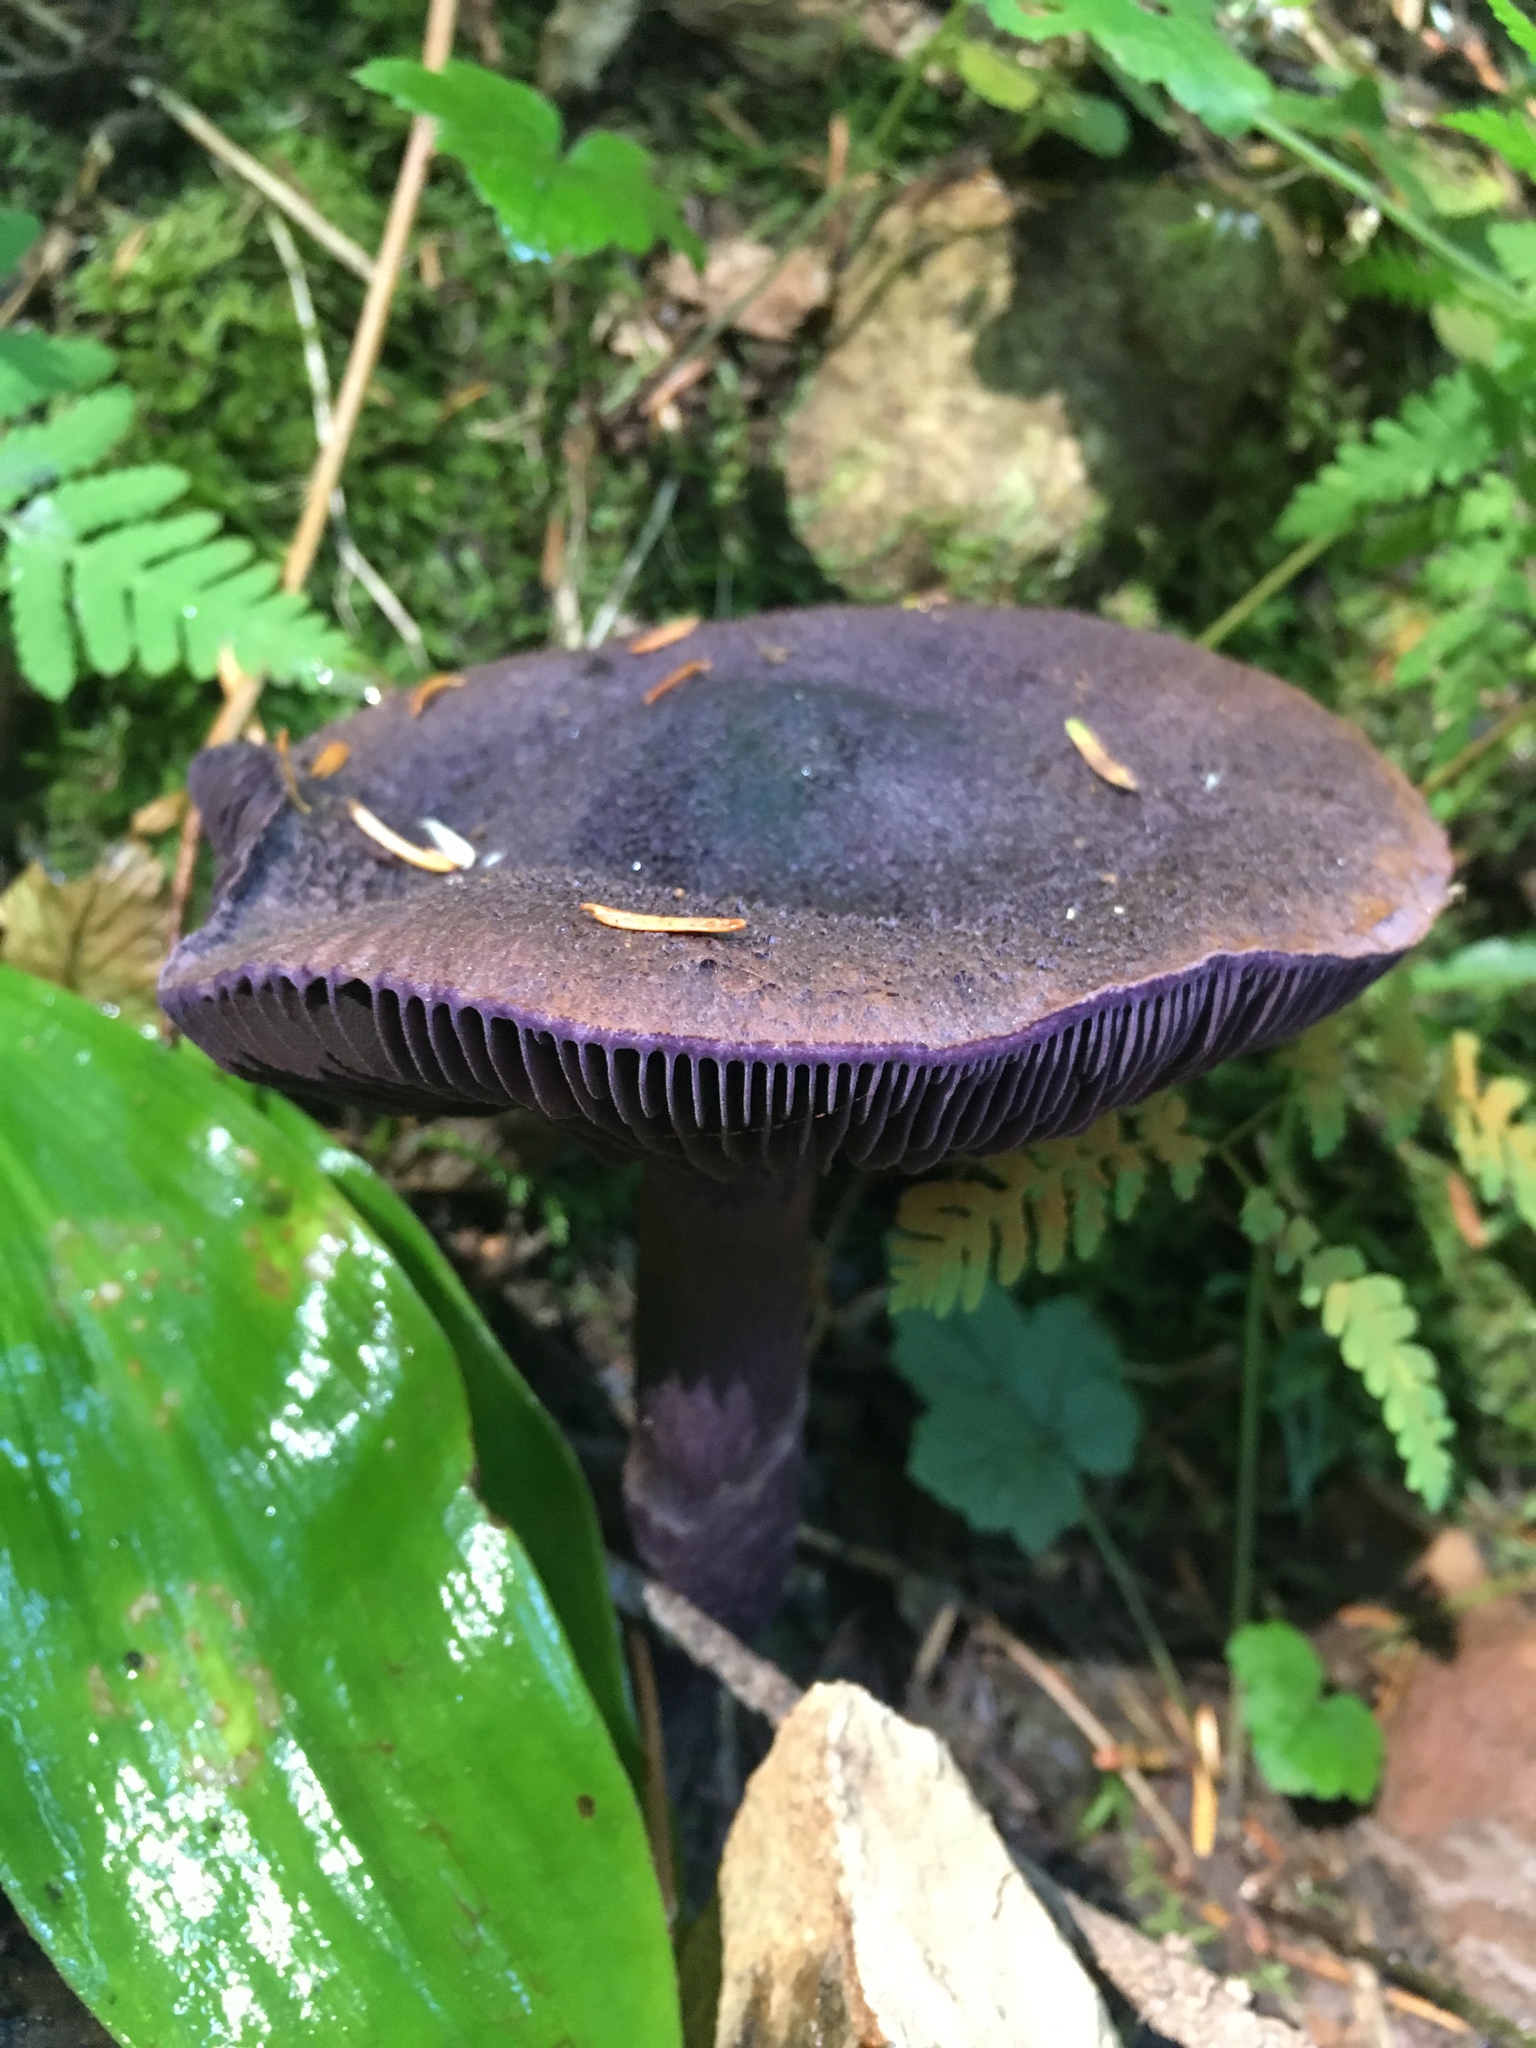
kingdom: Fungi
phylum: Basidiomycota
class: Agaricomycetes
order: Agaricales
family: Cortinariaceae
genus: Cortinarius
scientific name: Cortinarius violaceus
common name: Violet webcap
